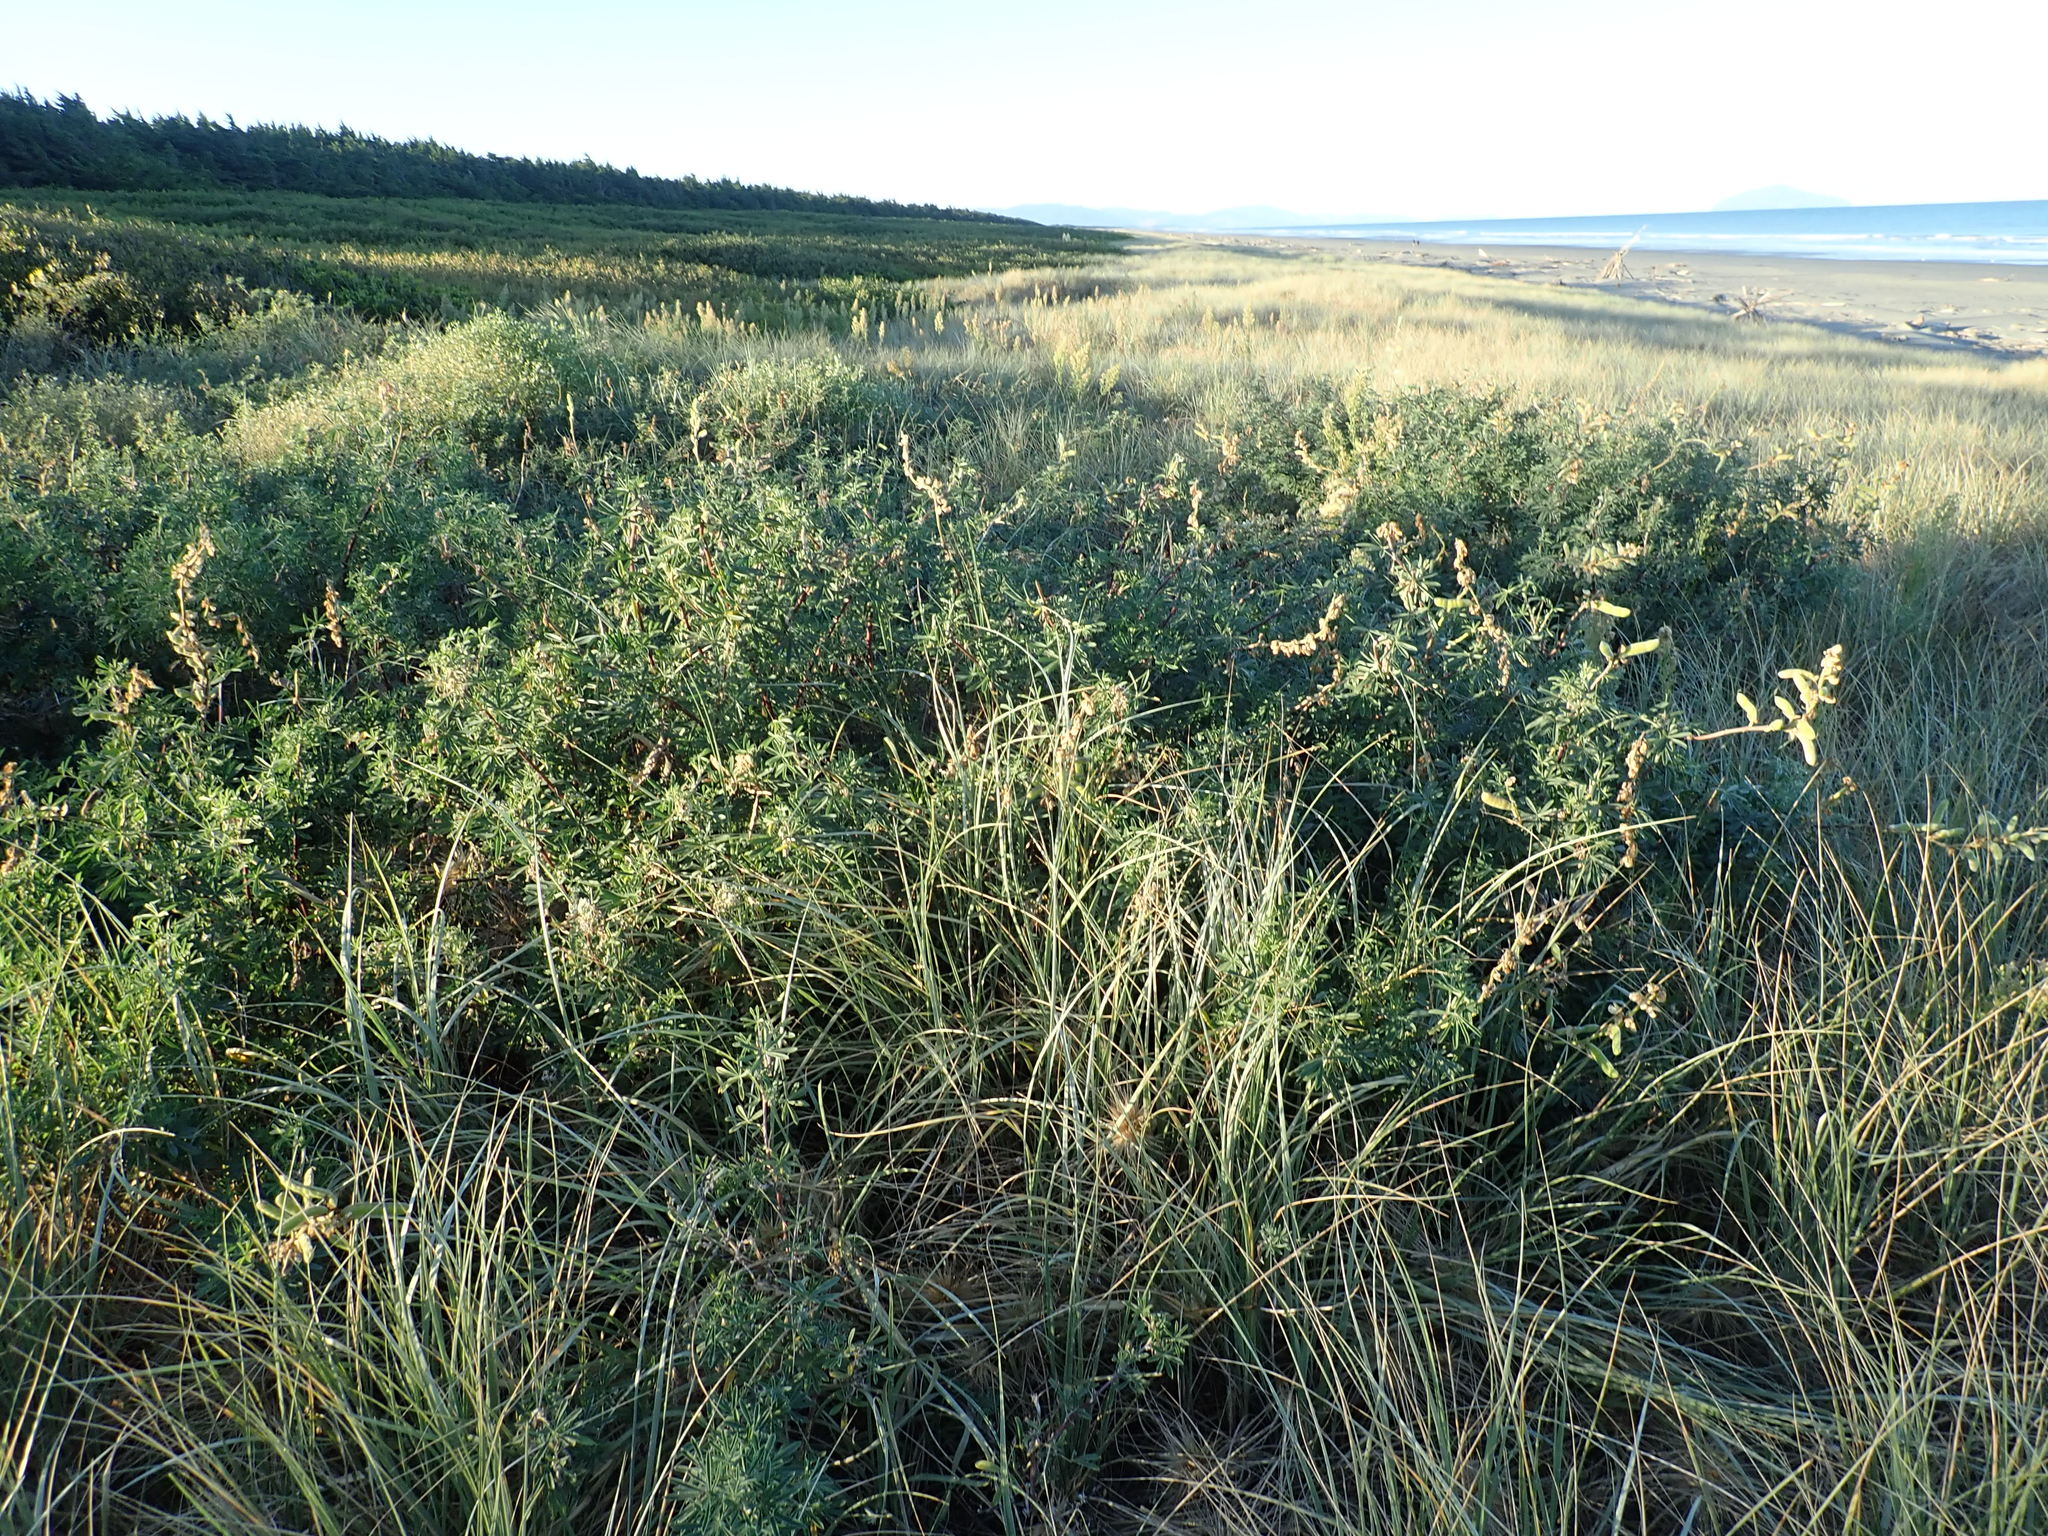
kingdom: Plantae
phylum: Tracheophyta
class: Magnoliopsida
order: Fabales
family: Fabaceae
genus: Lupinus
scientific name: Lupinus arboreus
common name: Yellow bush lupine
